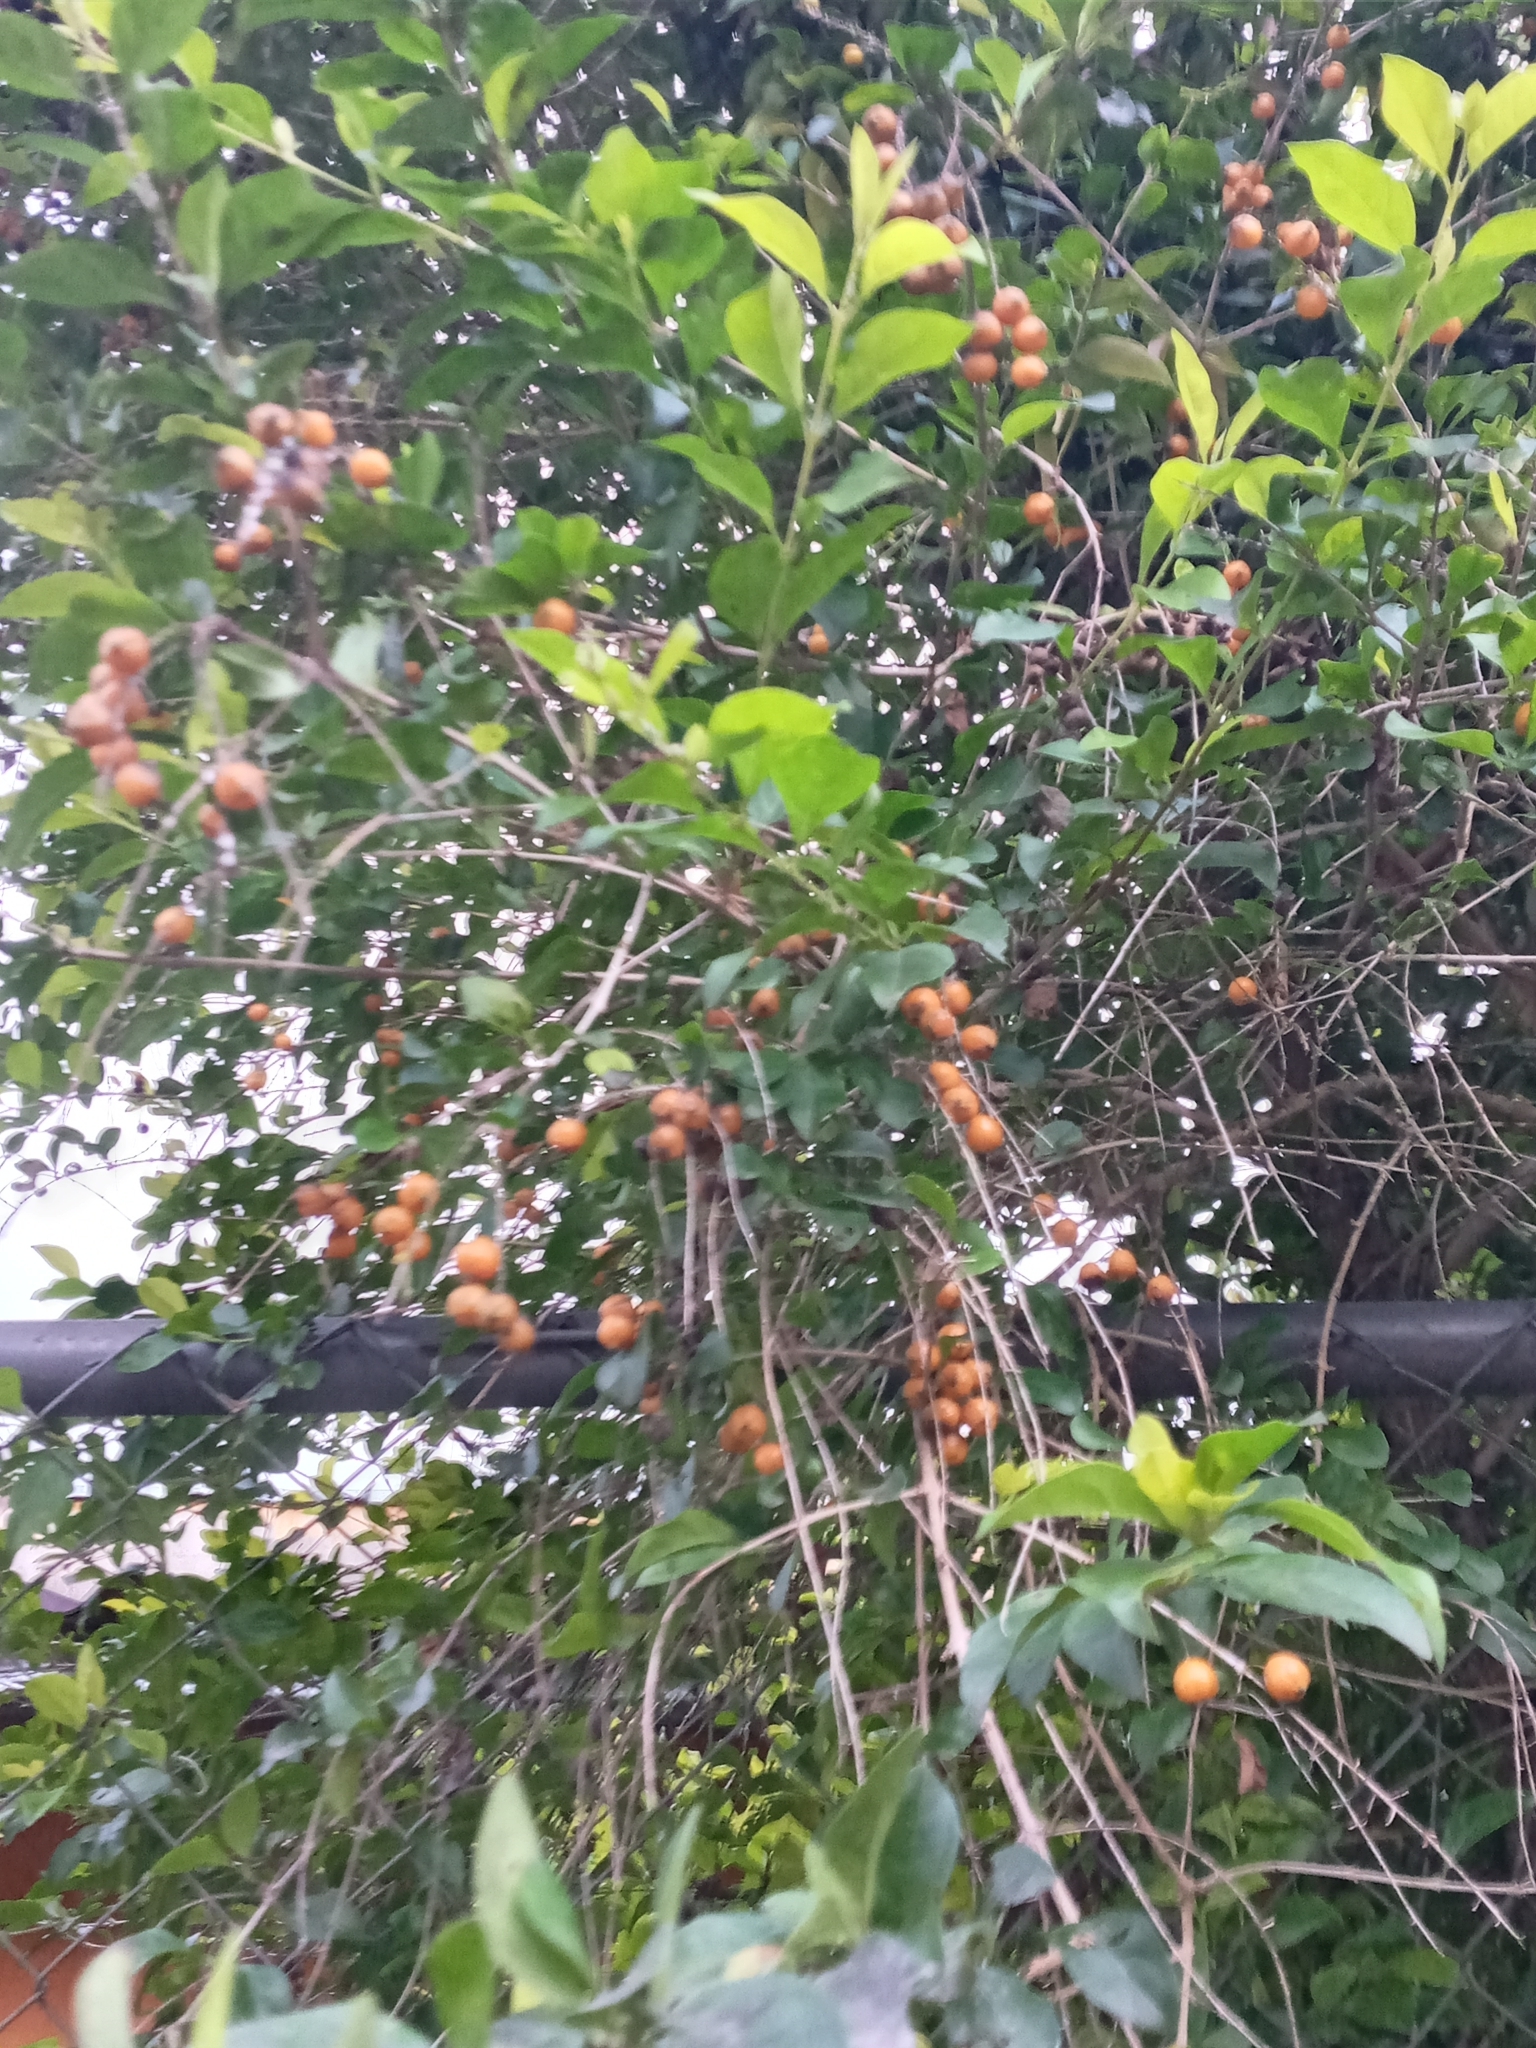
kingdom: Plantae
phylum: Tracheophyta
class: Magnoliopsida
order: Lamiales
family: Verbenaceae
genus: Duranta
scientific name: Duranta erecta
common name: Golden dewdrops
